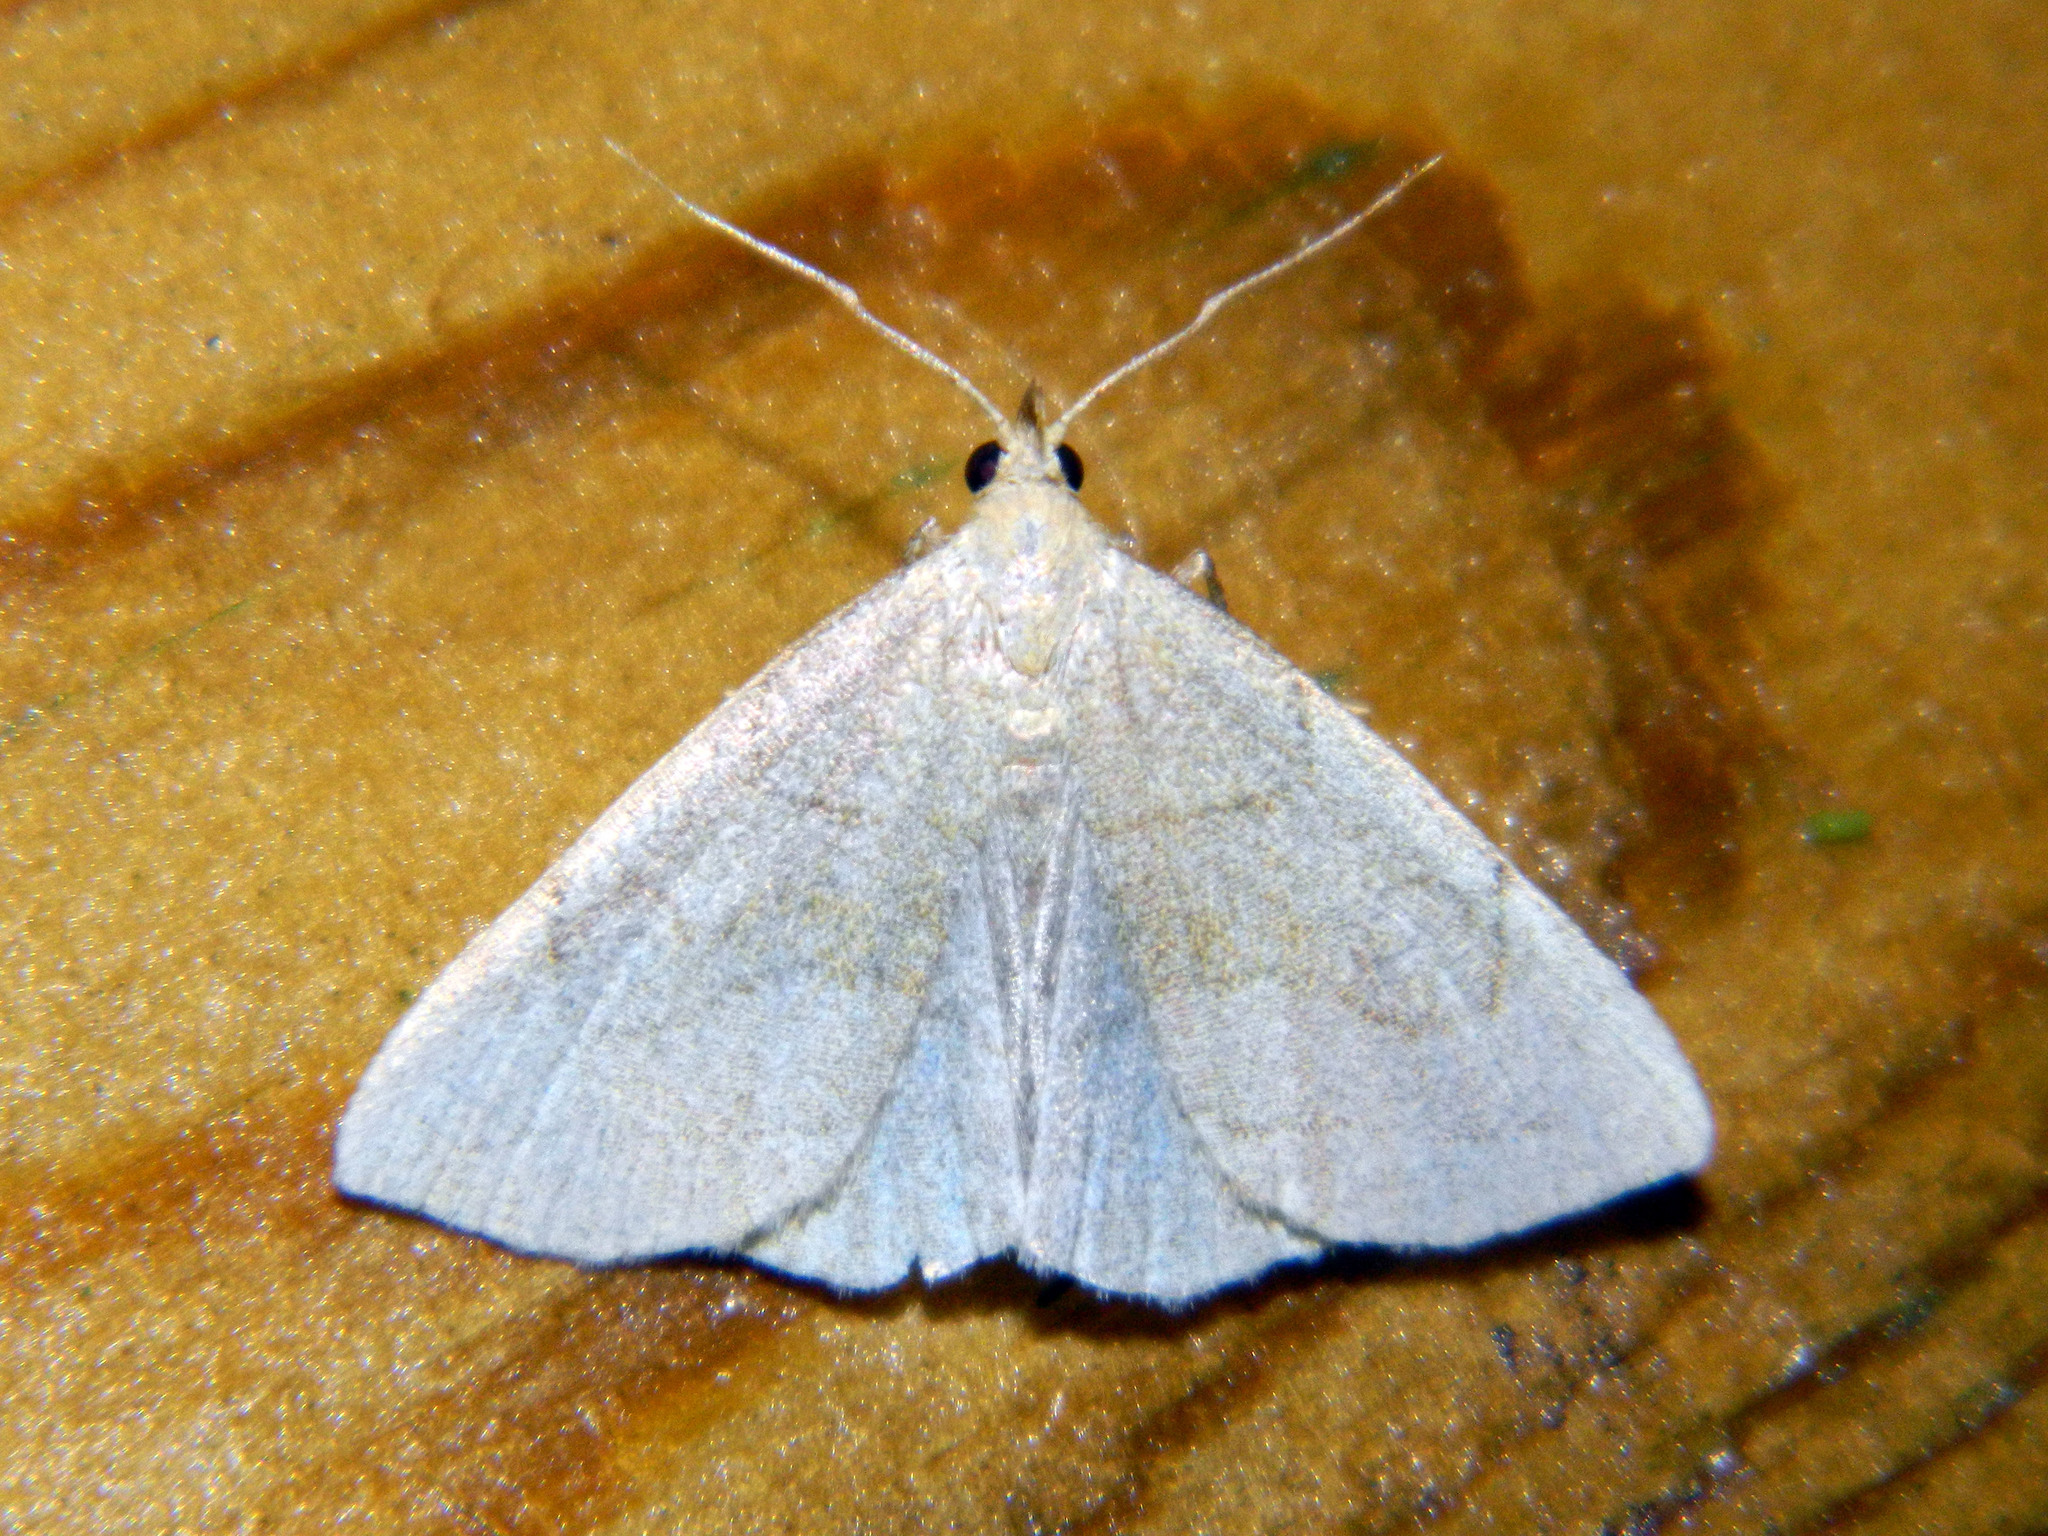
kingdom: Animalia
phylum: Arthropoda
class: Insecta
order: Lepidoptera
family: Erebidae
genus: Zanclognatha
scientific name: Zanclognatha pedipilalis
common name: Grayish fan-foot
